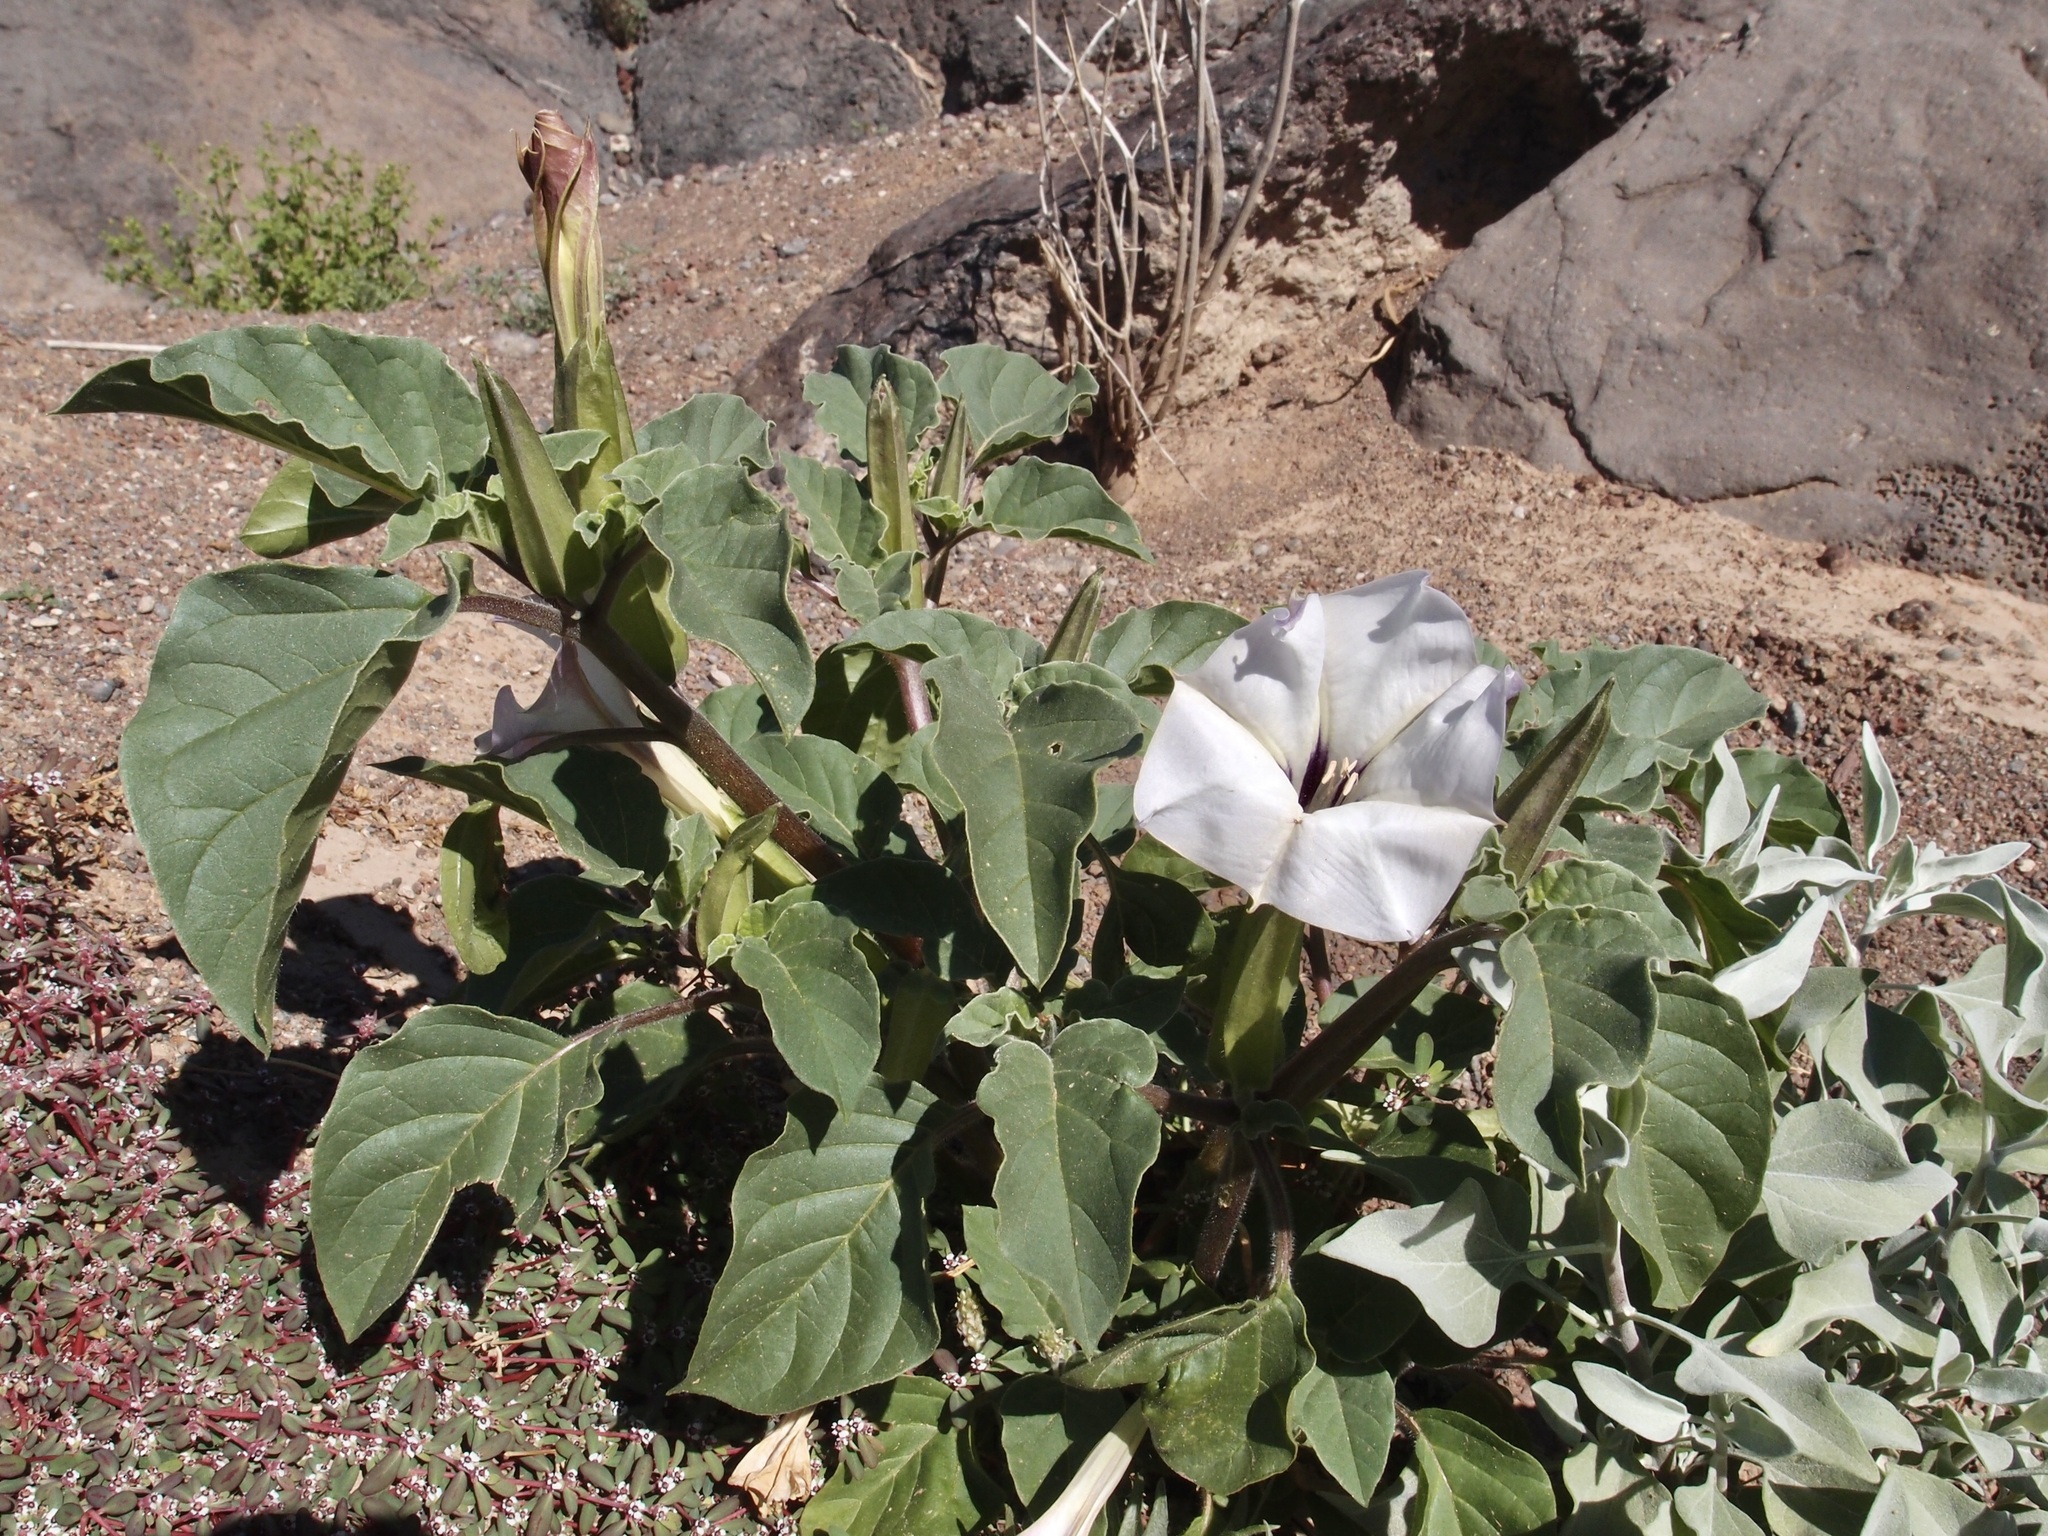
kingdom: Plantae
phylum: Tracheophyta
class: Magnoliopsida
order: Solanales
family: Solanaceae
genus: Datura
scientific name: Datura discolor
